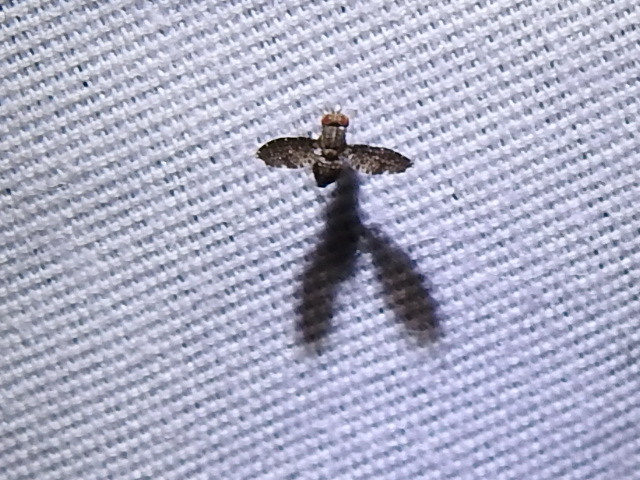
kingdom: Animalia
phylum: Arthropoda
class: Insecta
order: Diptera
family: Lauxaniidae
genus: Trypetisoma
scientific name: Trypetisoma sticticum
